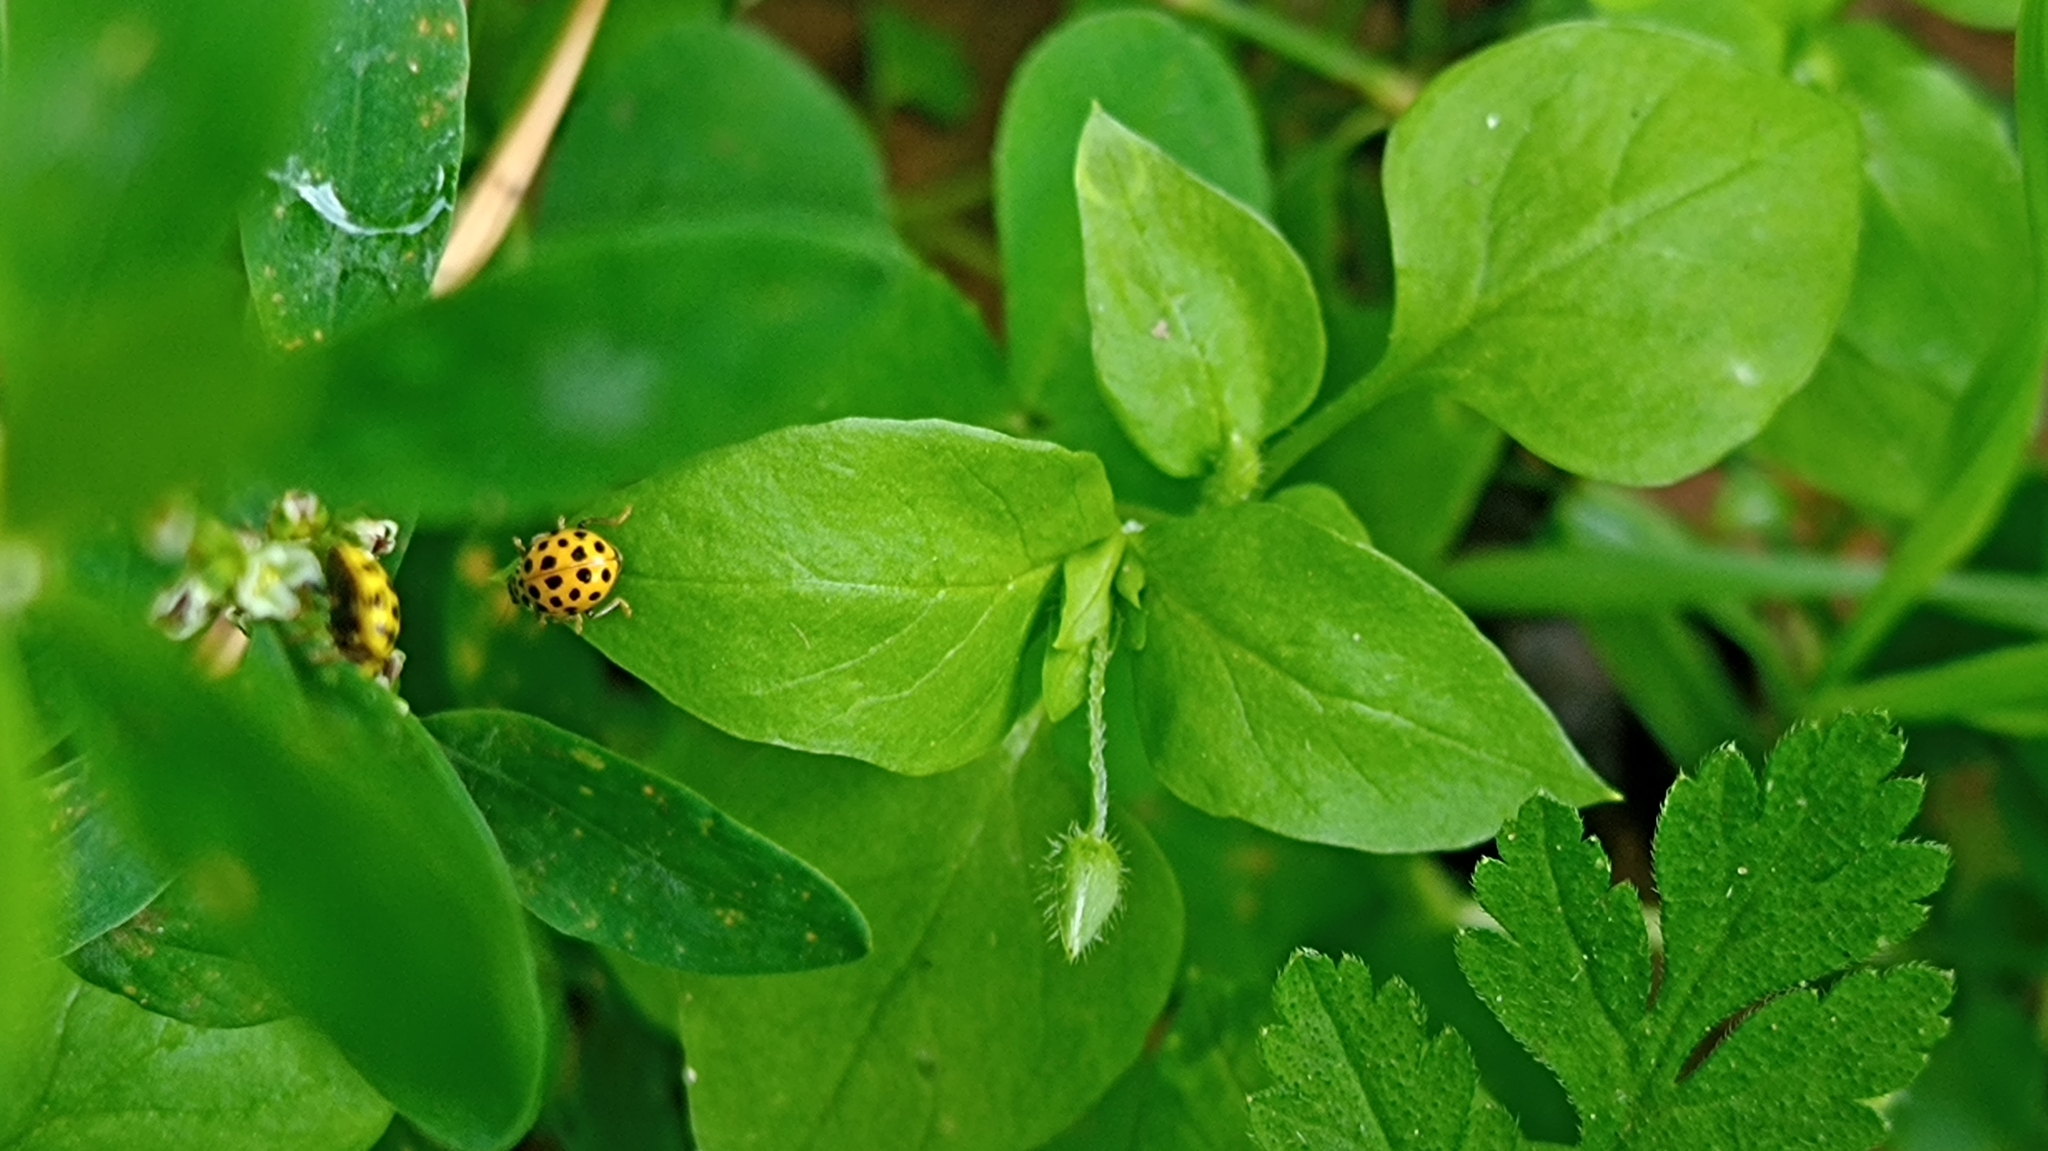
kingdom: Animalia
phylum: Arthropoda
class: Insecta
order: Coleoptera
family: Coccinellidae
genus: Psyllobora
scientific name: Psyllobora vigintiduopunctata
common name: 22-spot ladybird
